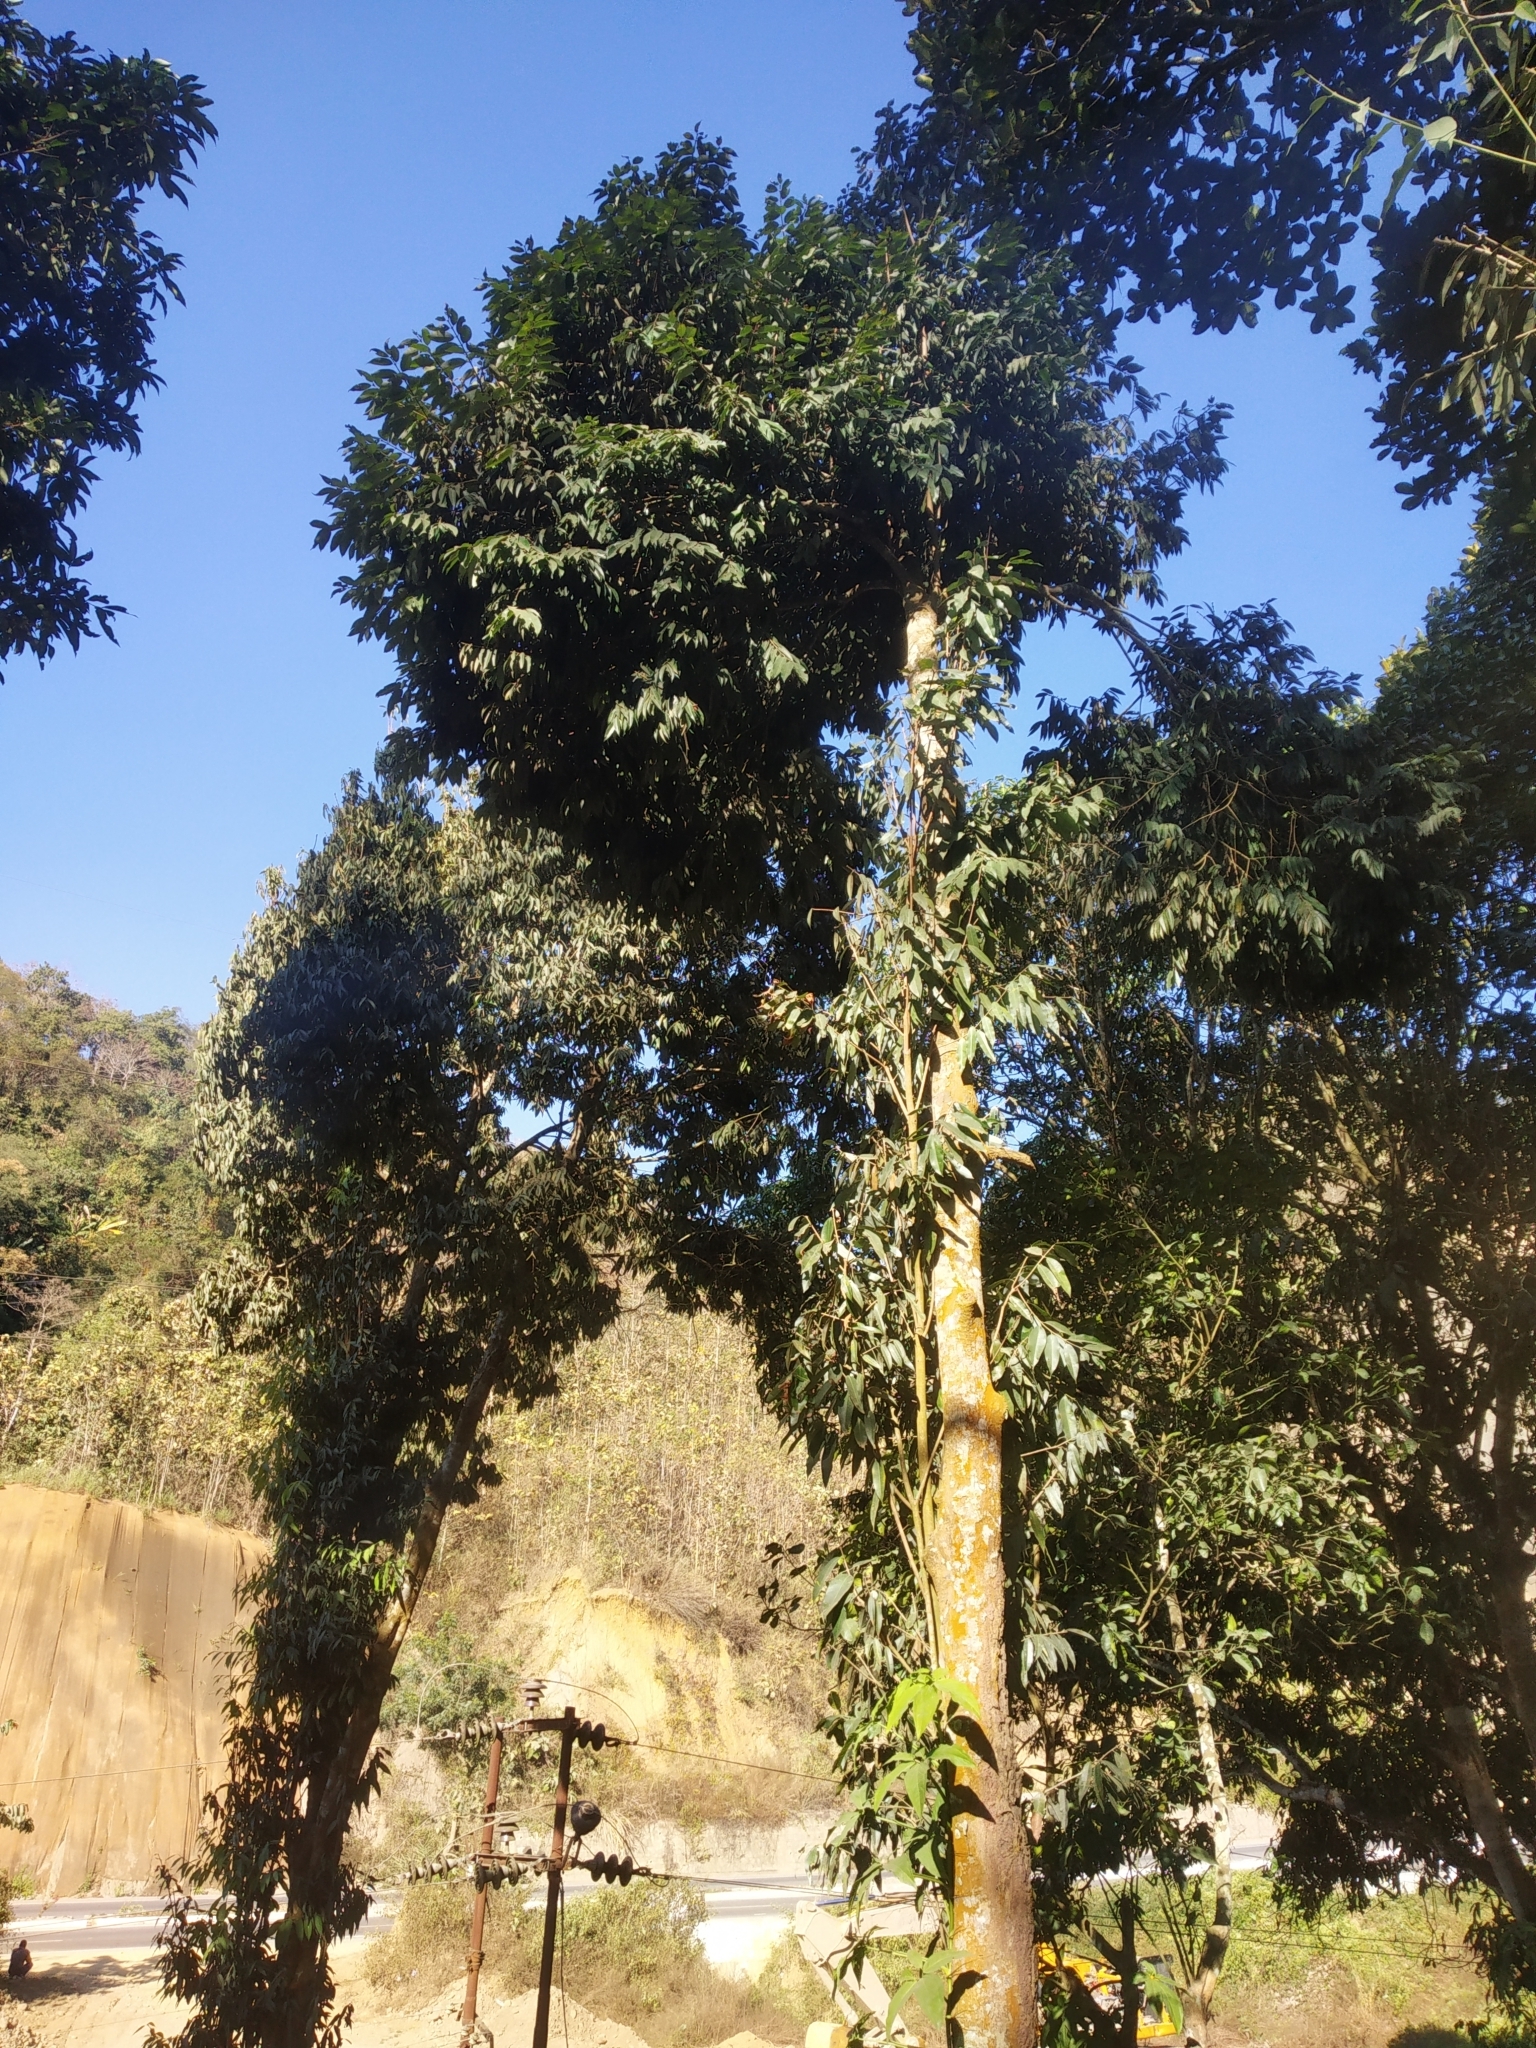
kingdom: Plantae
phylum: Tracheophyta
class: Magnoliopsida
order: Malpighiales
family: Calophyllaceae
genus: Mesua
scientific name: Mesua ferrea
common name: Mesua
